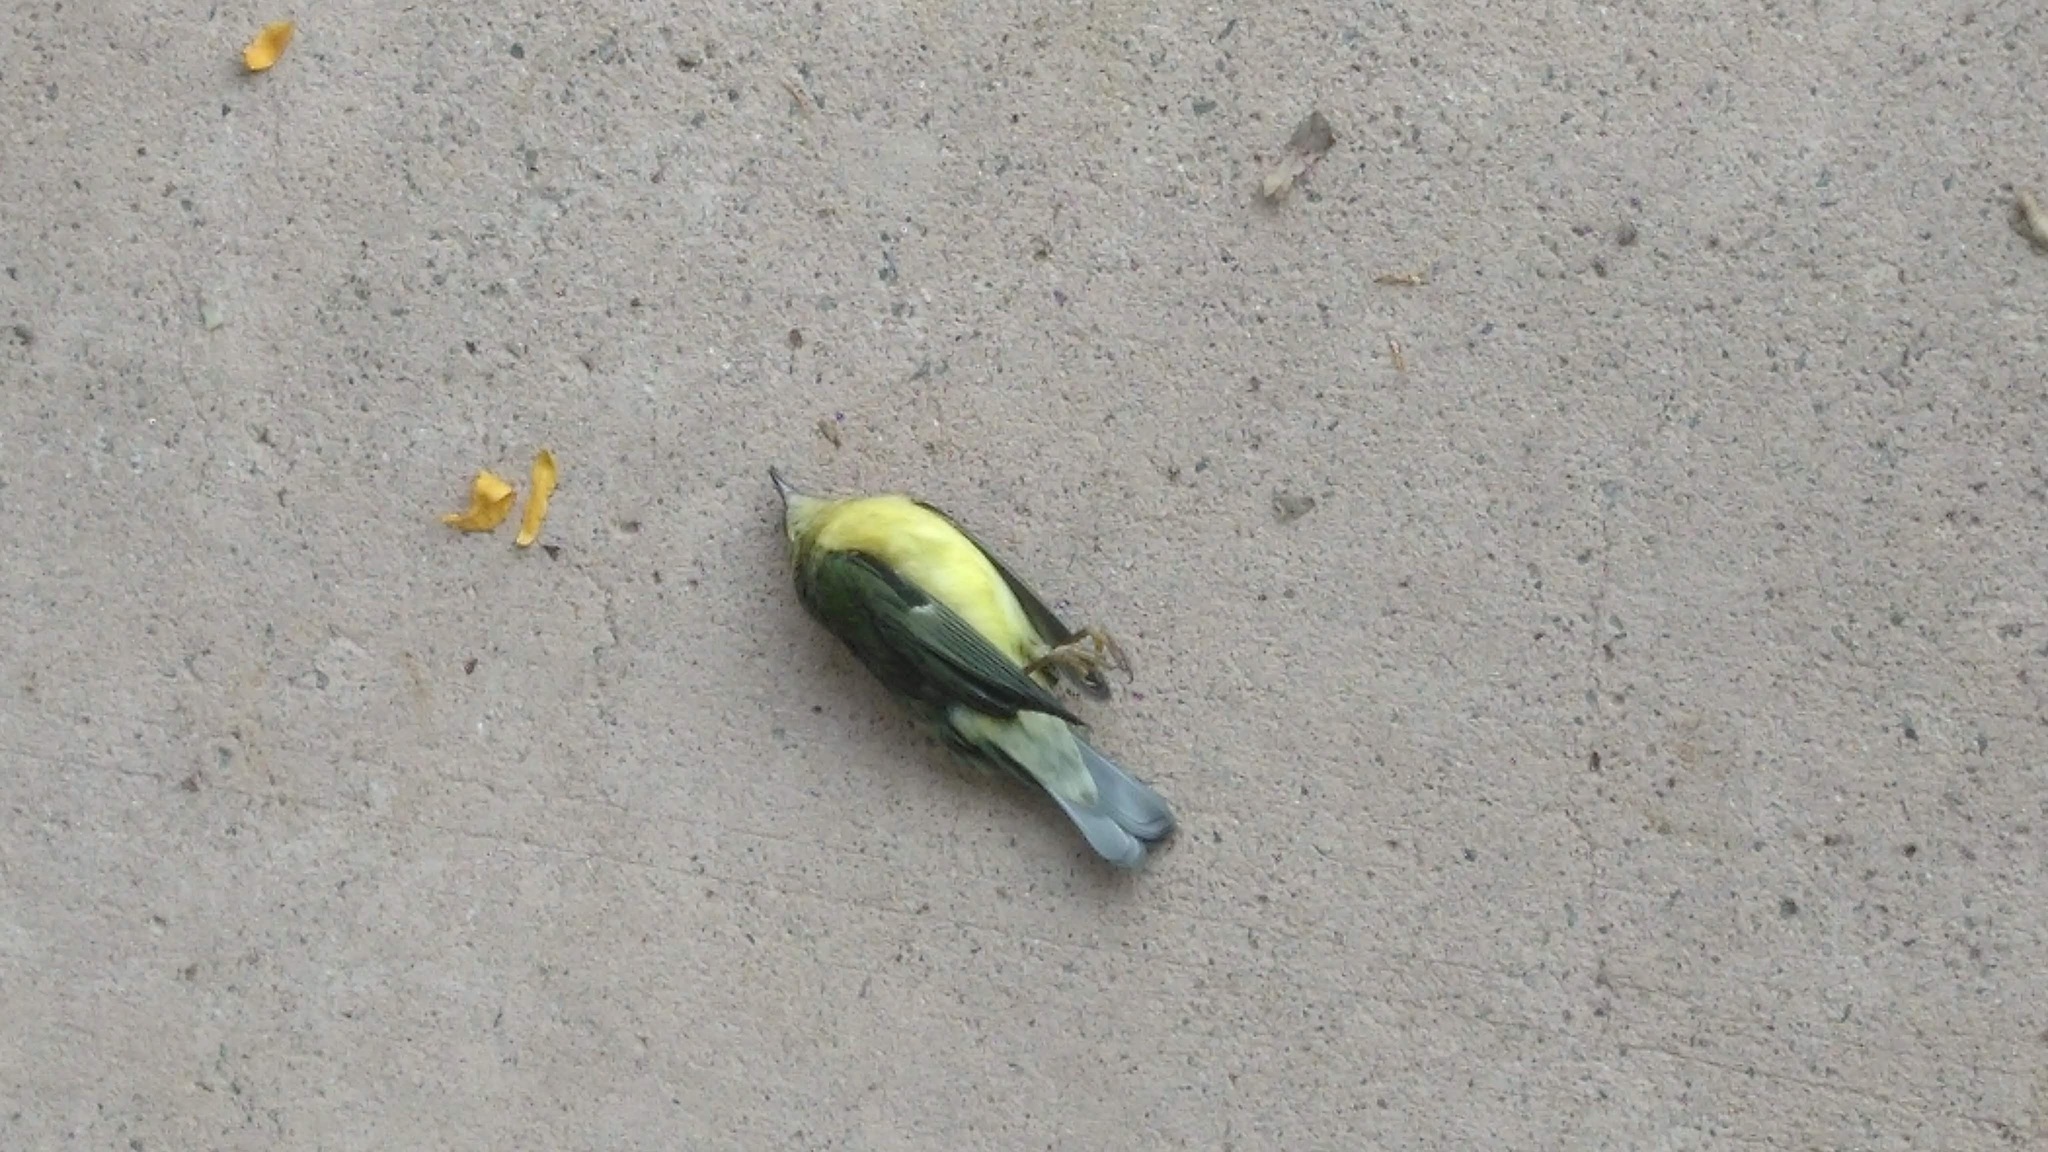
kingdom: Animalia
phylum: Chordata
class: Aves
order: Passeriformes
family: Parulidae
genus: Setophaga
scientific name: Setophaga caerulescens
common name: Black-throated blue warbler
